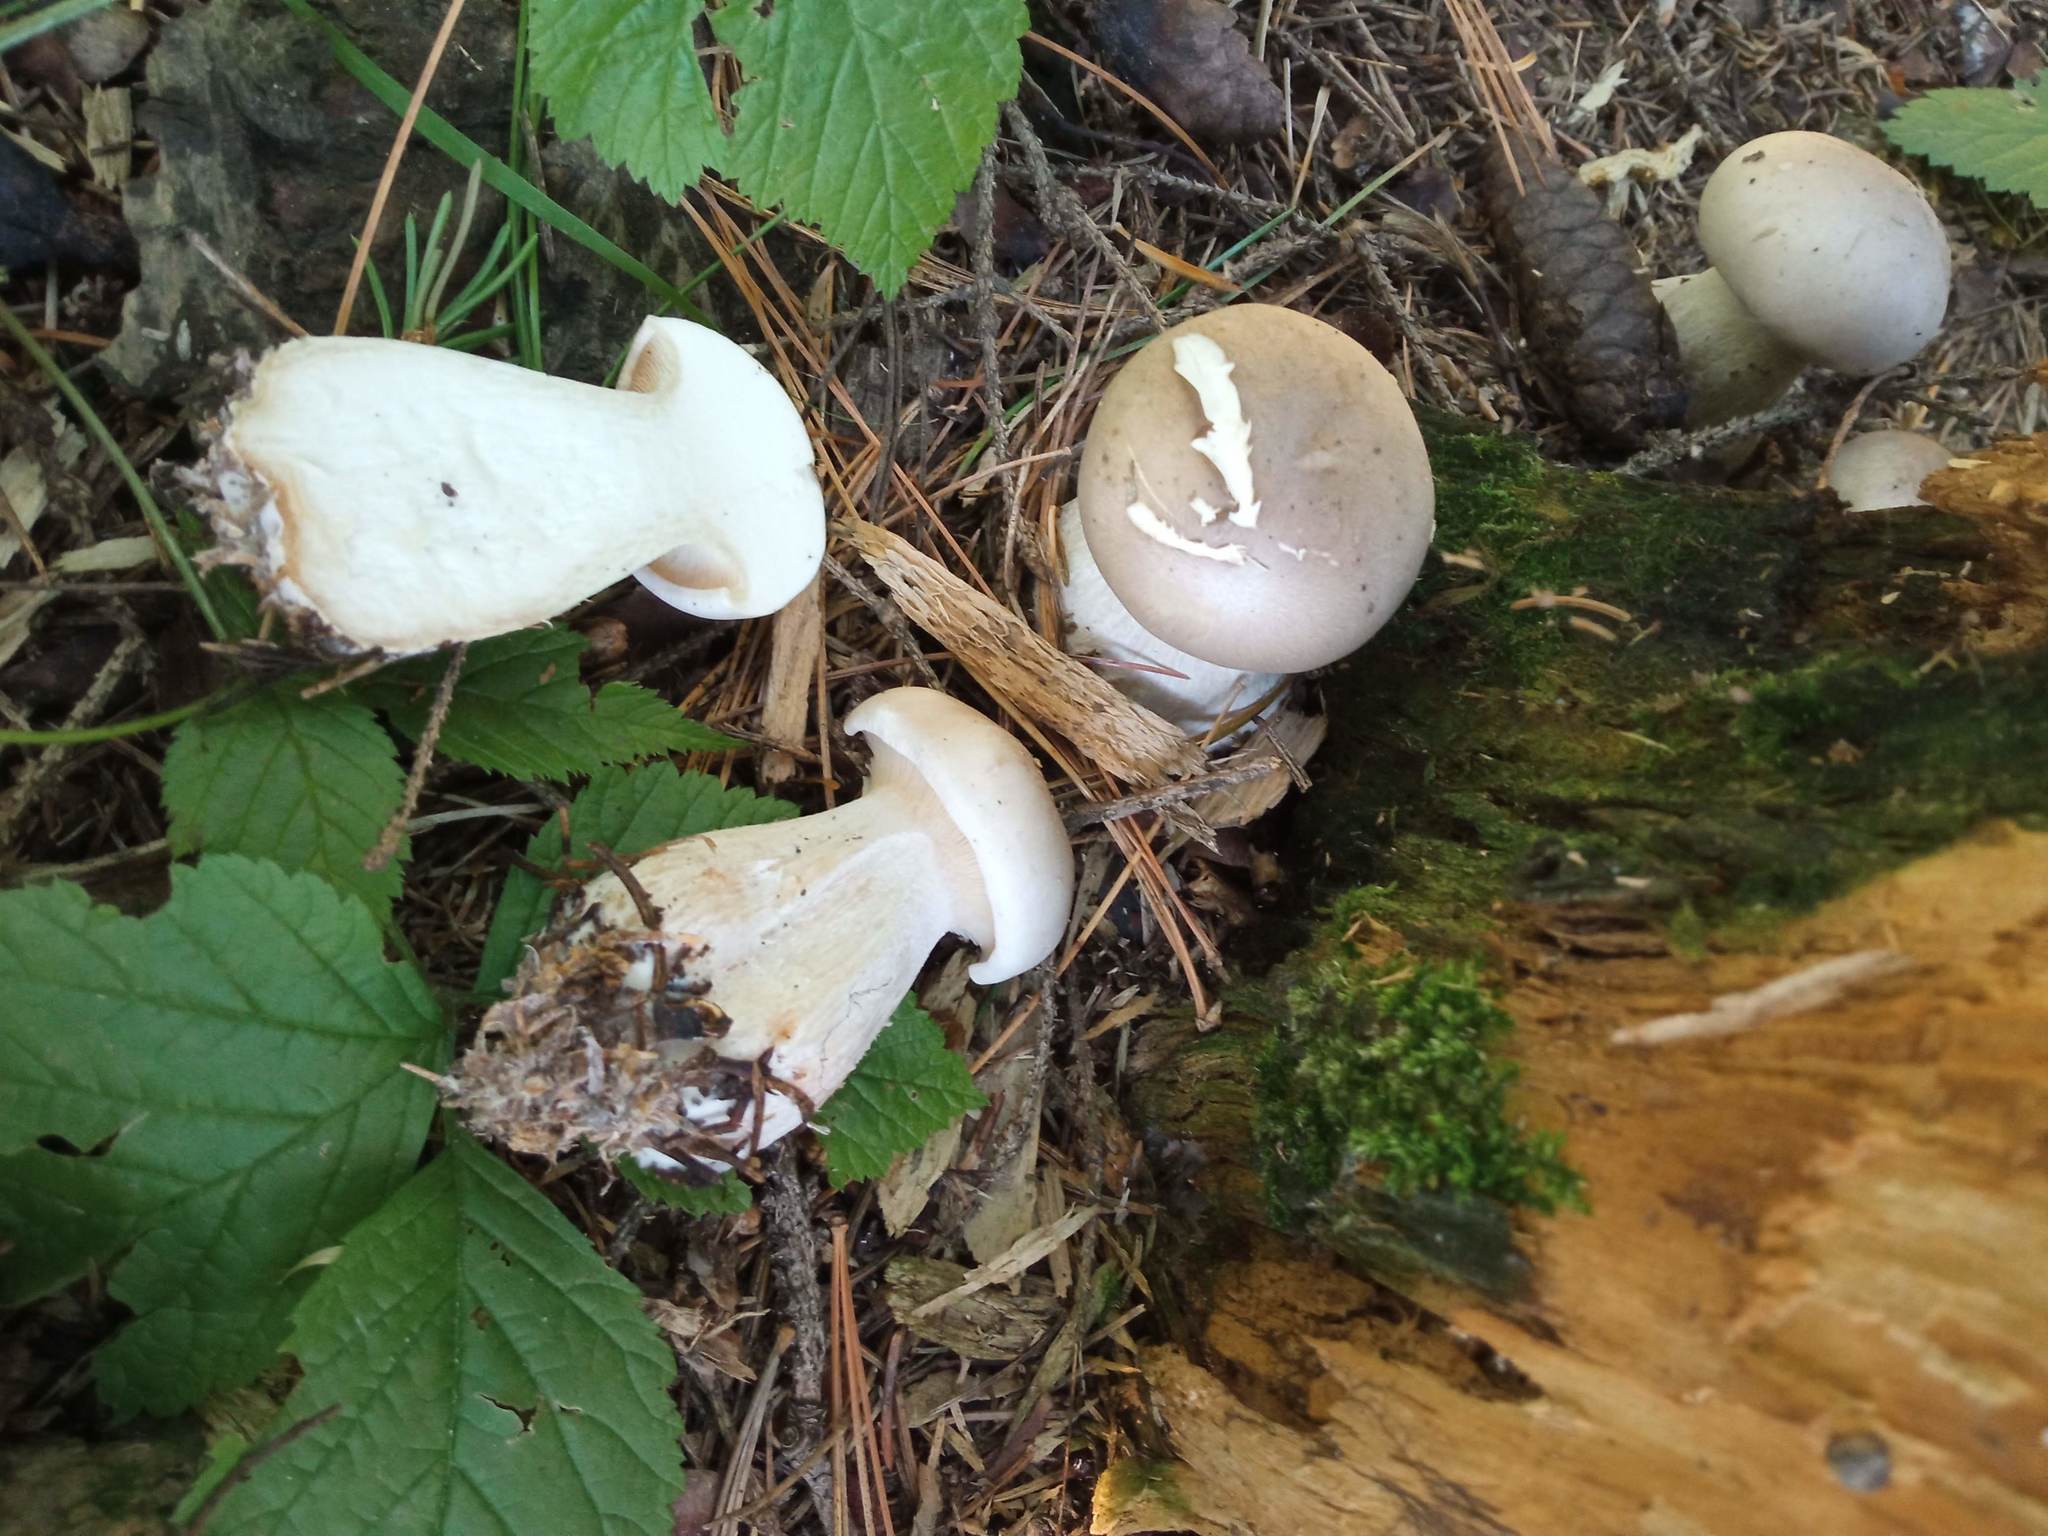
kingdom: Fungi
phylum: Basidiomycota
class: Agaricomycetes
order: Agaricales
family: Tricholomataceae
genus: Clitocybe
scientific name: Clitocybe nebularis
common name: Clouded agaric
